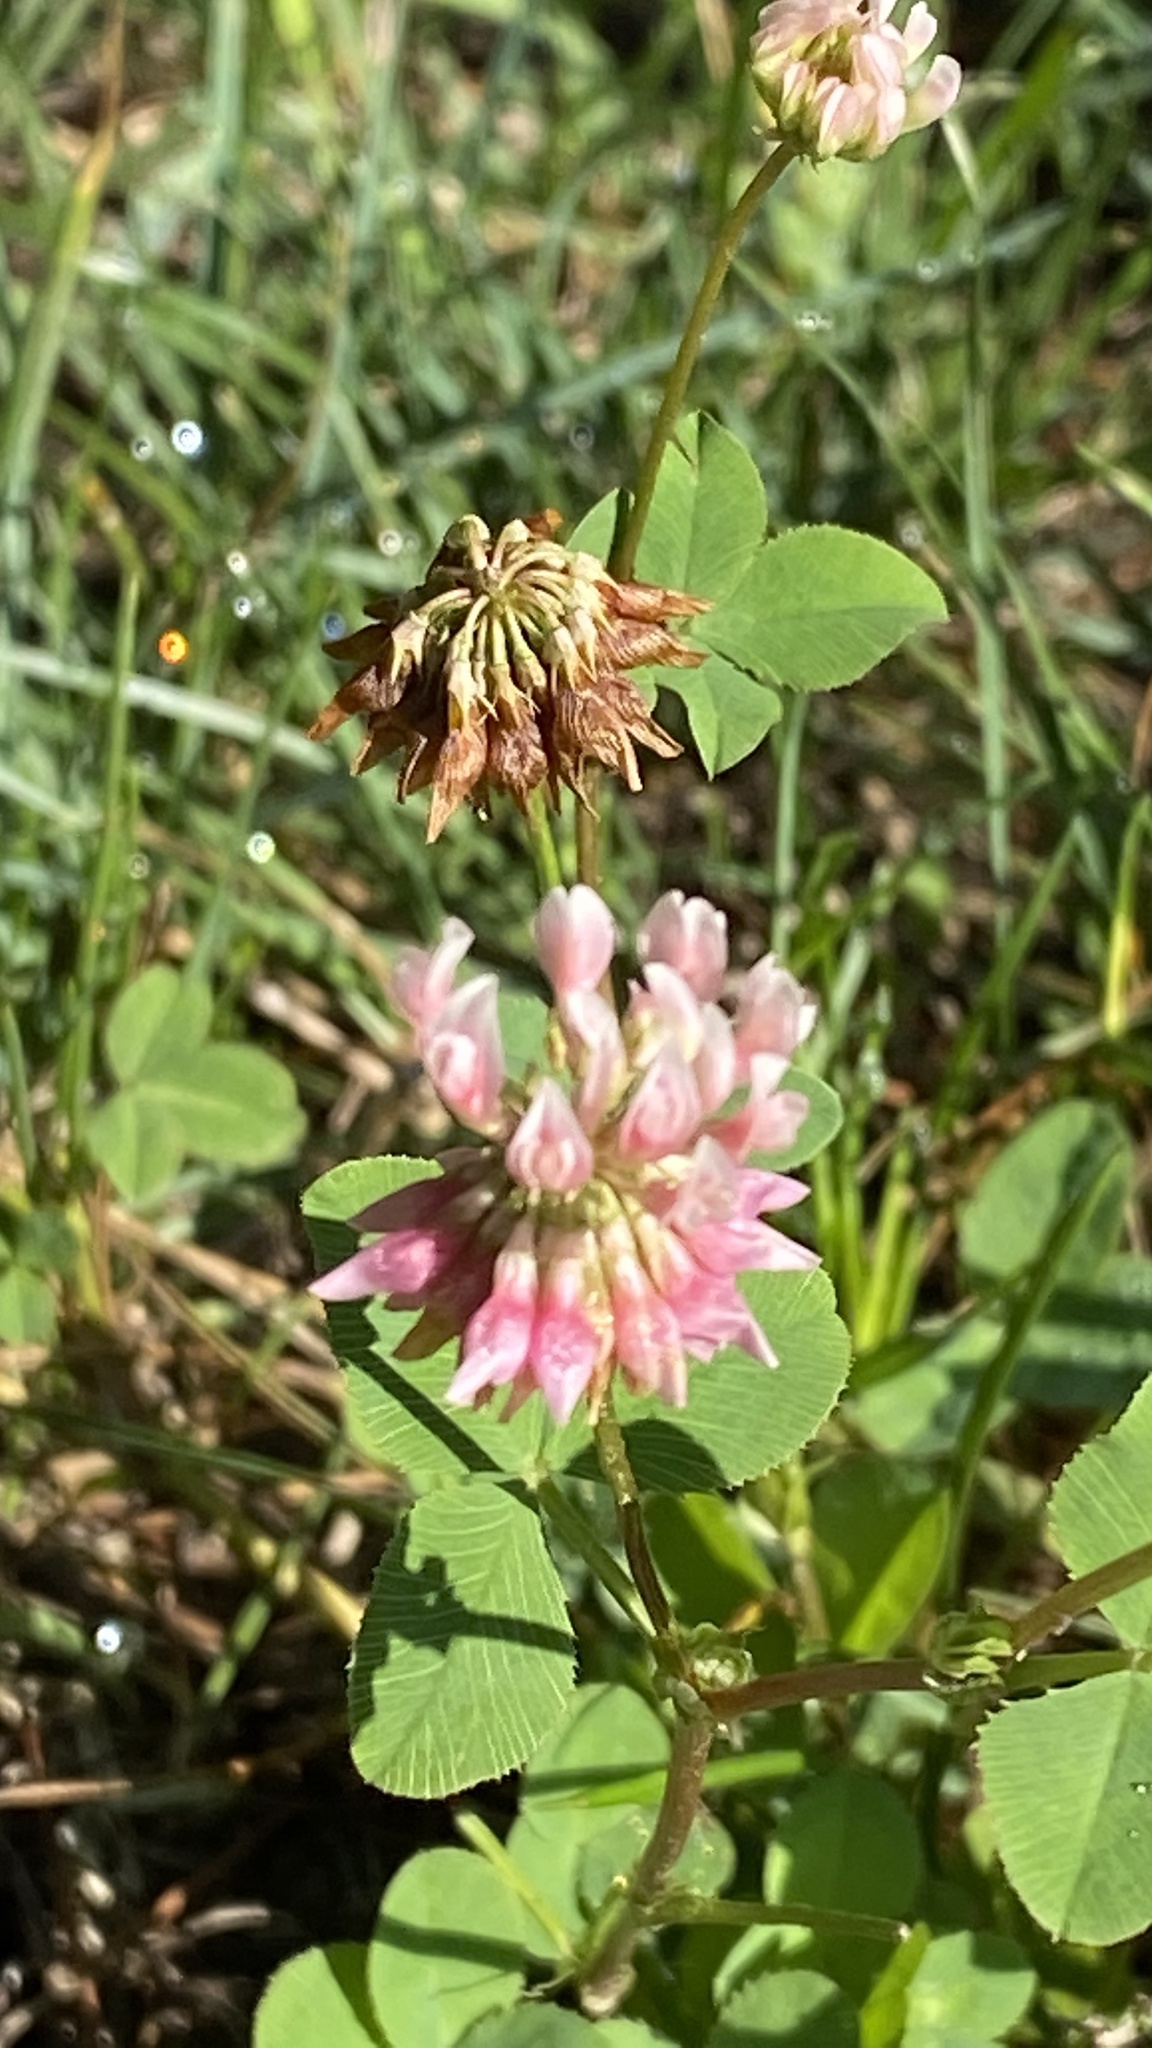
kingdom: Plantae
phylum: Tracheophyta
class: Magnoliopsida
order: Fabales
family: Fabaceae
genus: Trifolium
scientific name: Trifolium hybridum
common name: Alsike clover
